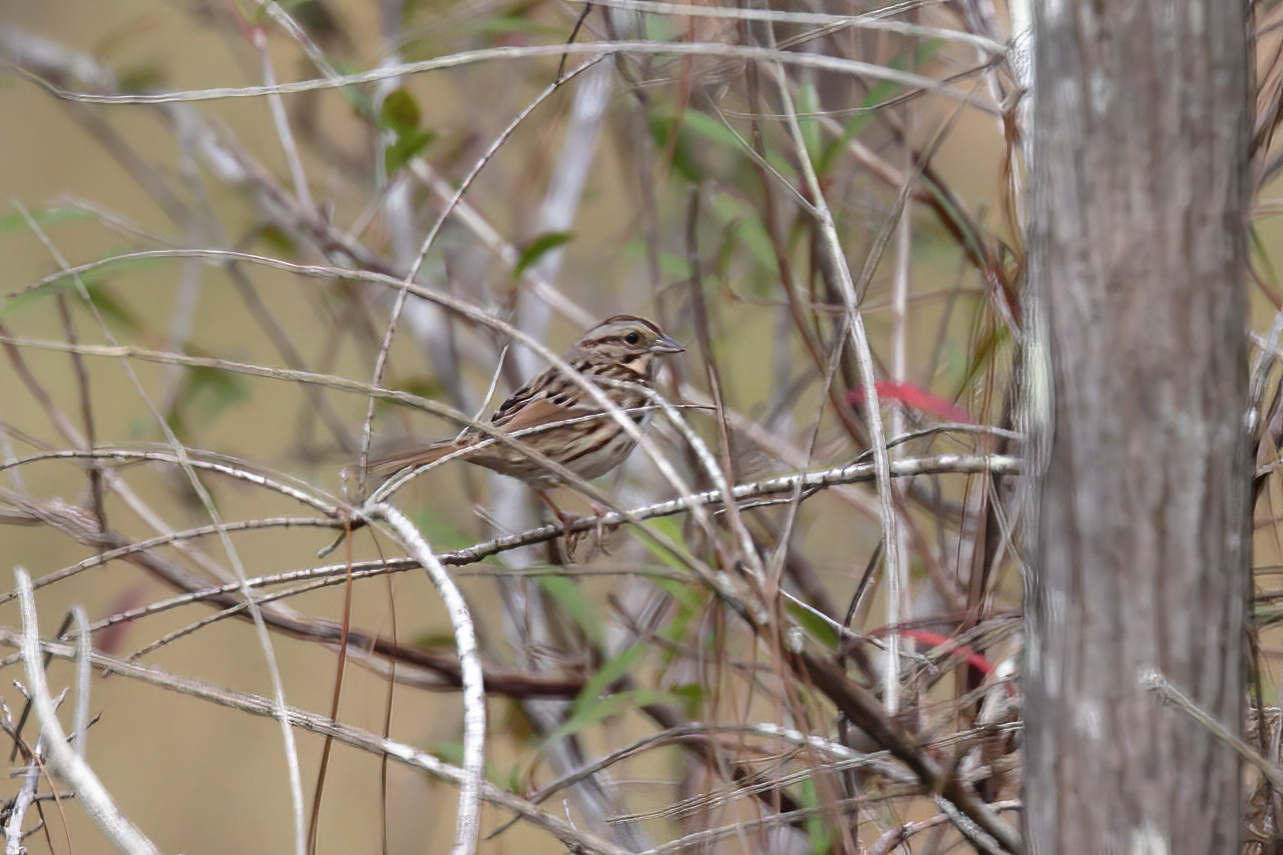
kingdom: Animalia
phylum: Chordata
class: Aves
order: Passeriformes
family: Passerellidae
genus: Melospiza
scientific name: Melospiza melodia
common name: Song sparrow
